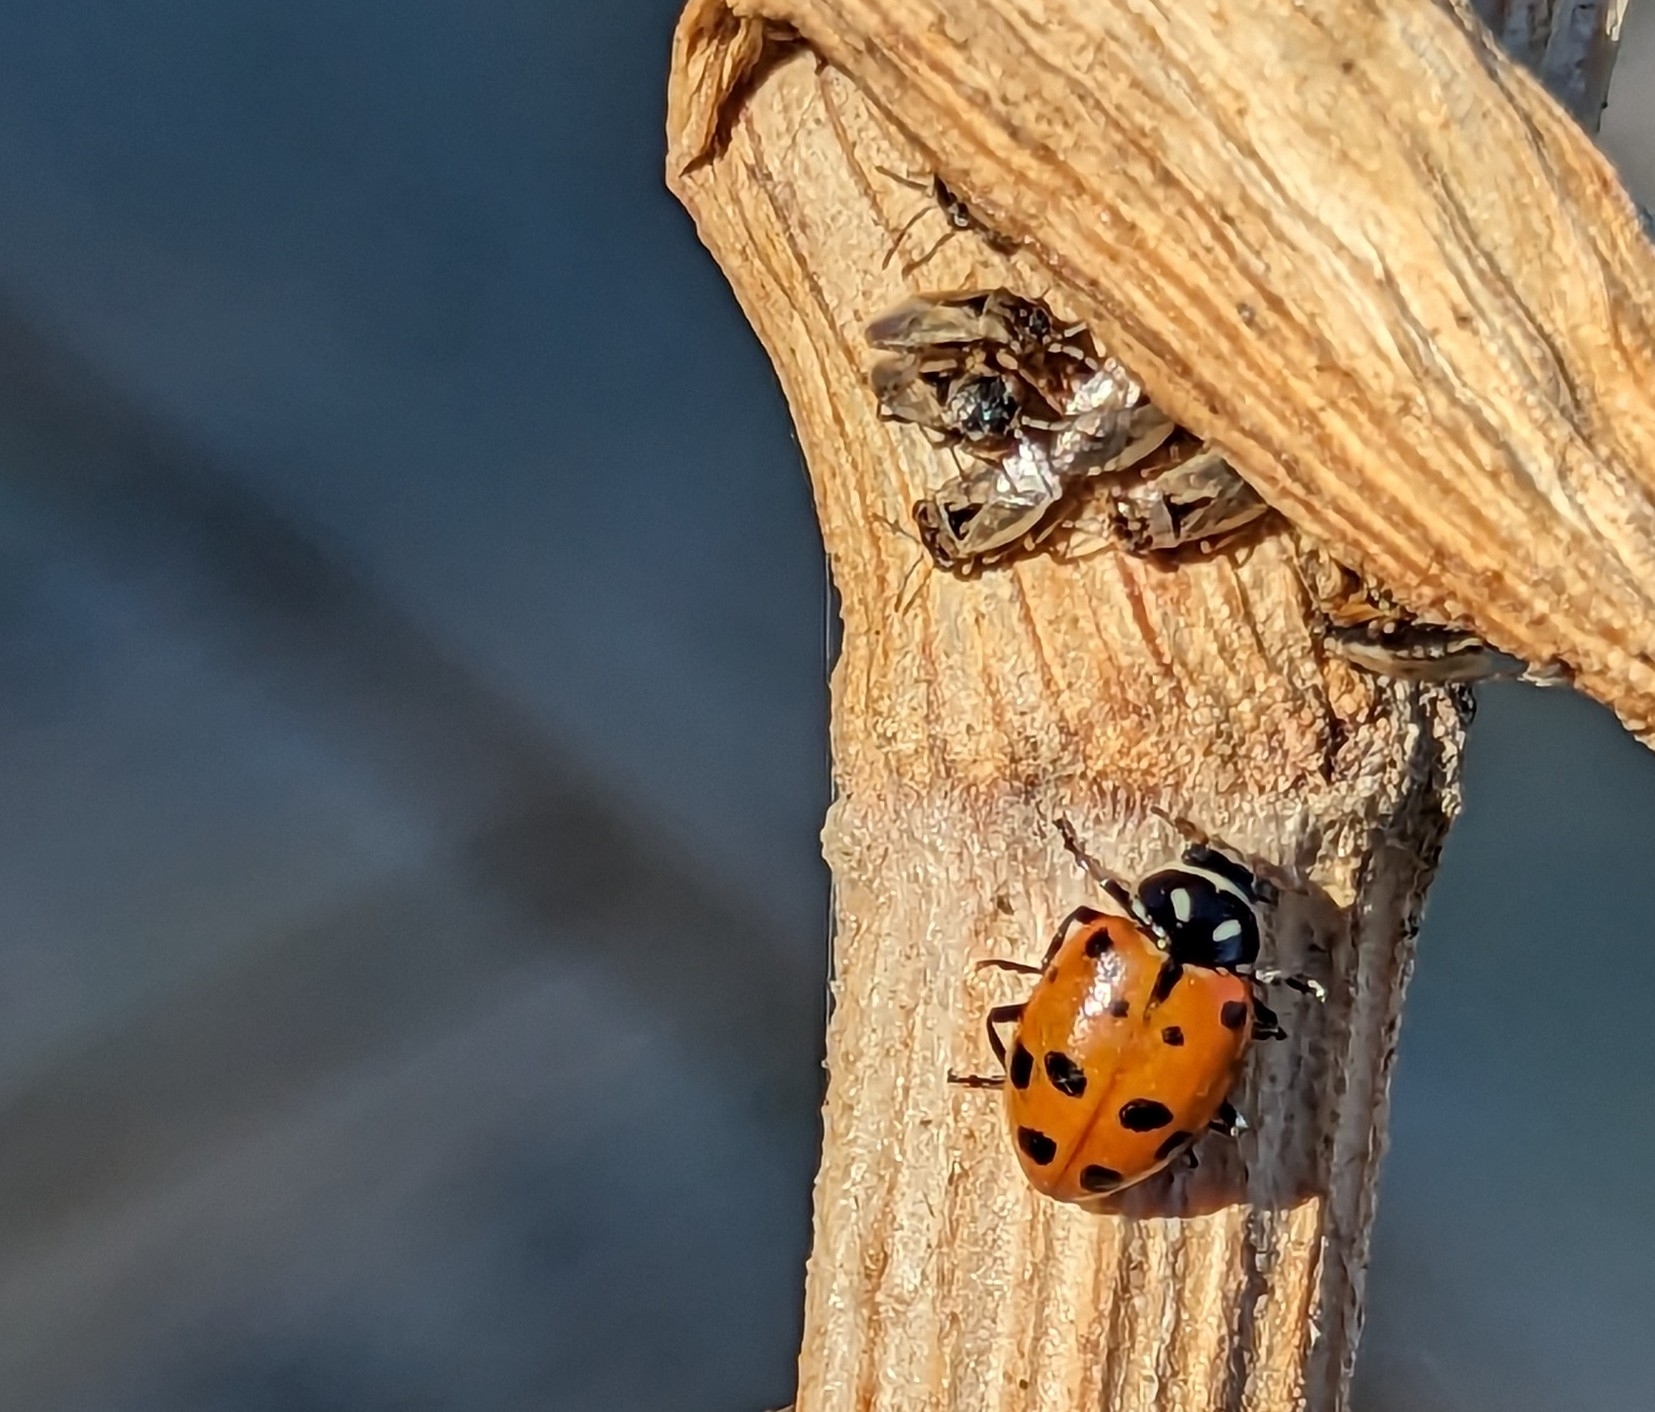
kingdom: Animalia
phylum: Arthropoda
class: Insecta
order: Coleoptera
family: Coccinellidae
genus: Hippodamia
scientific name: Hippodamia convergens
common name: Convergent lady beetle
